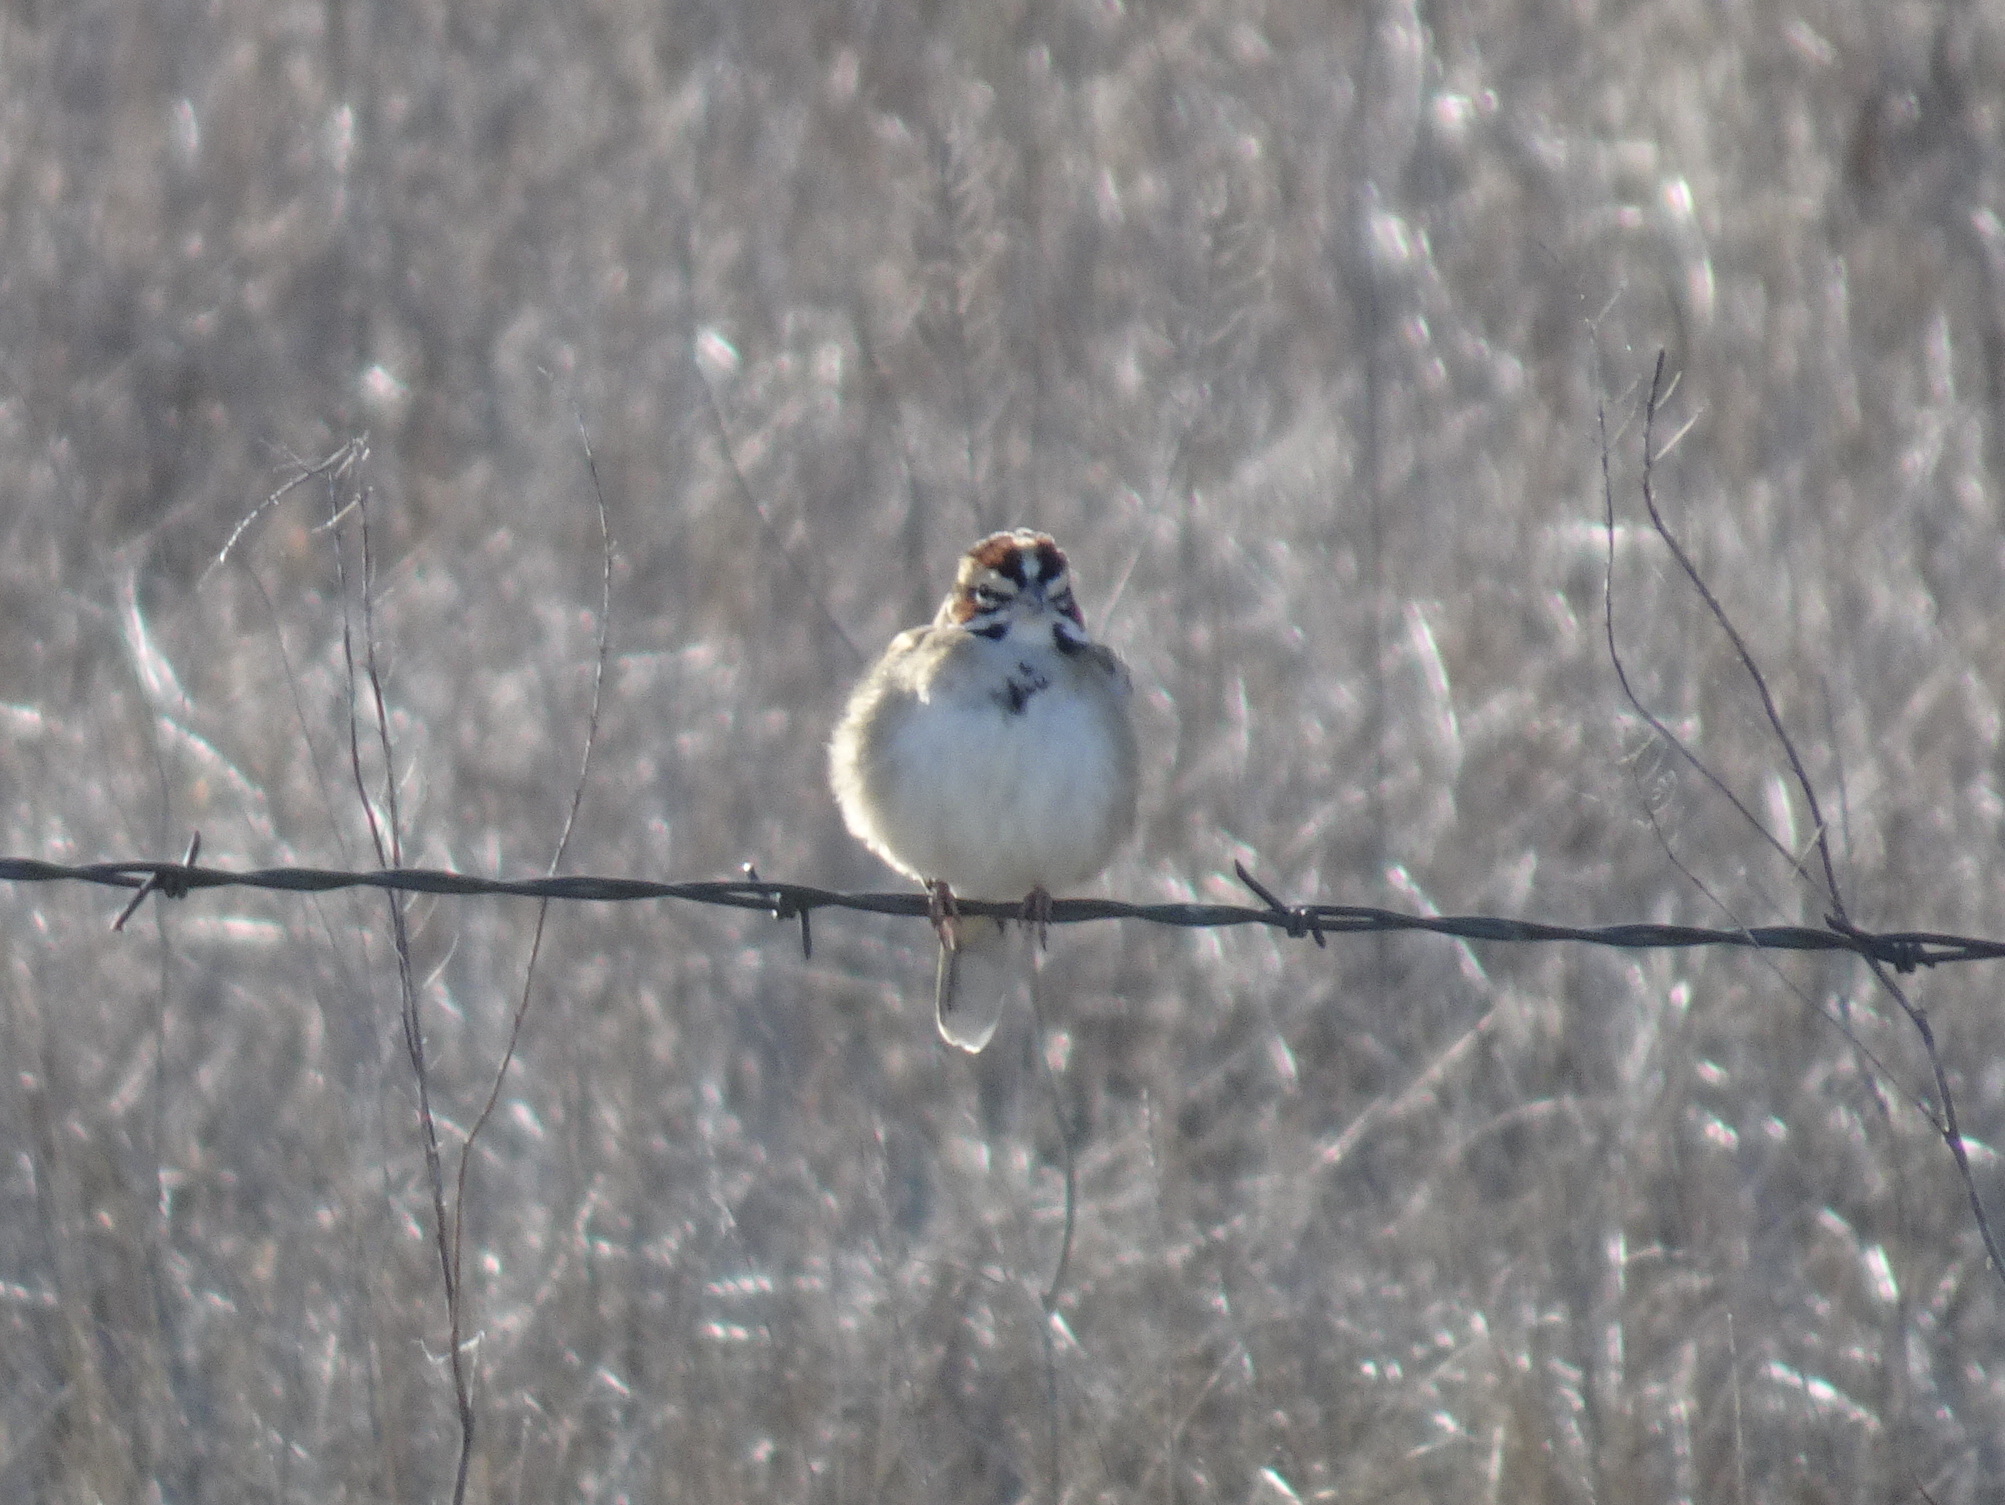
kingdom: Animalia
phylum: Chordata
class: Aves
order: Passeriformes
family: Passerellidae
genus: Chondestes
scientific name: Chondestes grammacus
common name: Lark sparrow
